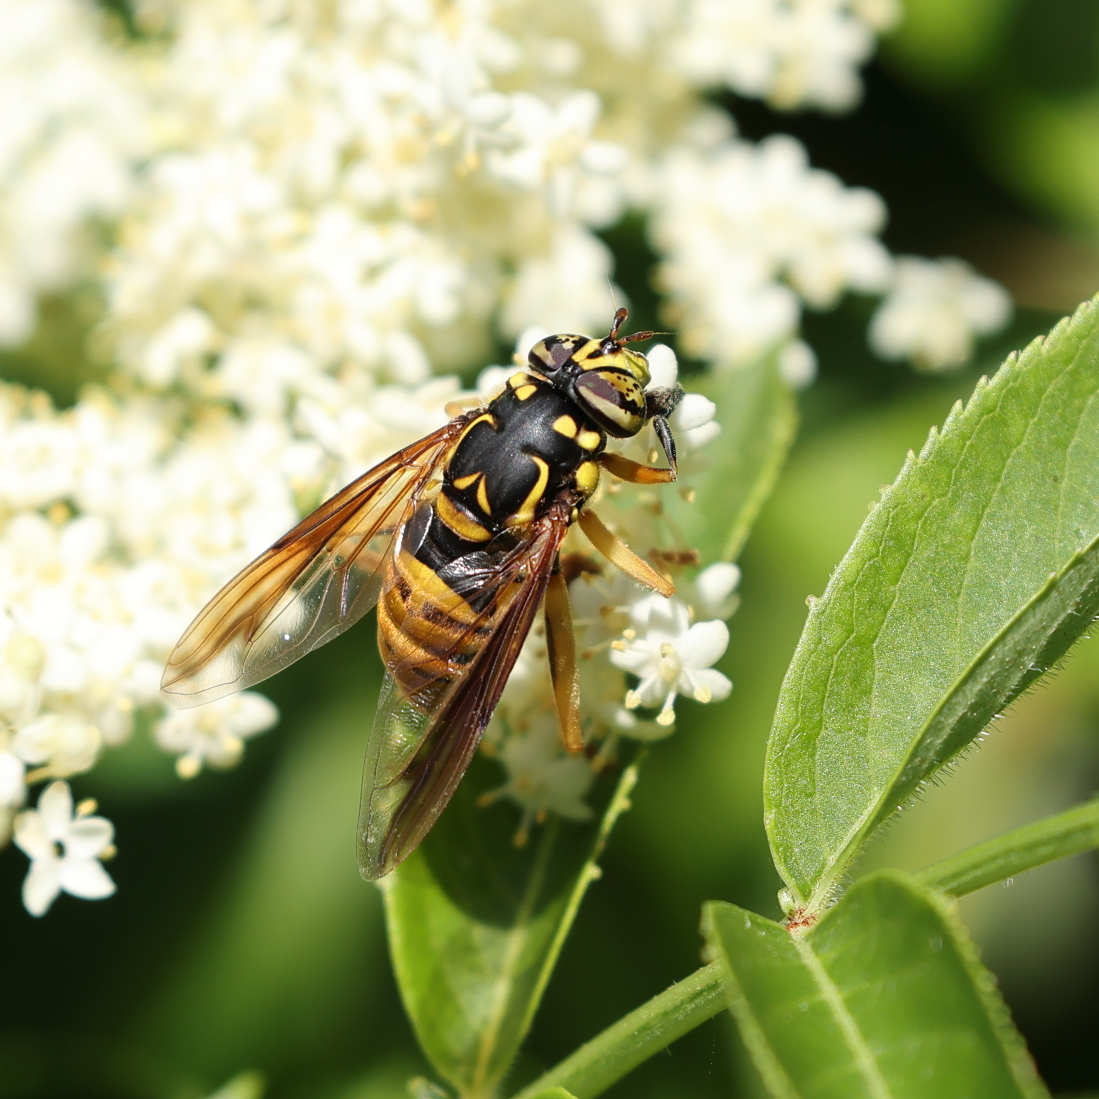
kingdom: Animalia
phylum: Arthropoda
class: Insecta
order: Diptera
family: Syrphidae
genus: Spilomyia
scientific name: Spilomyia alcimus
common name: Broad-banded hornet fly
